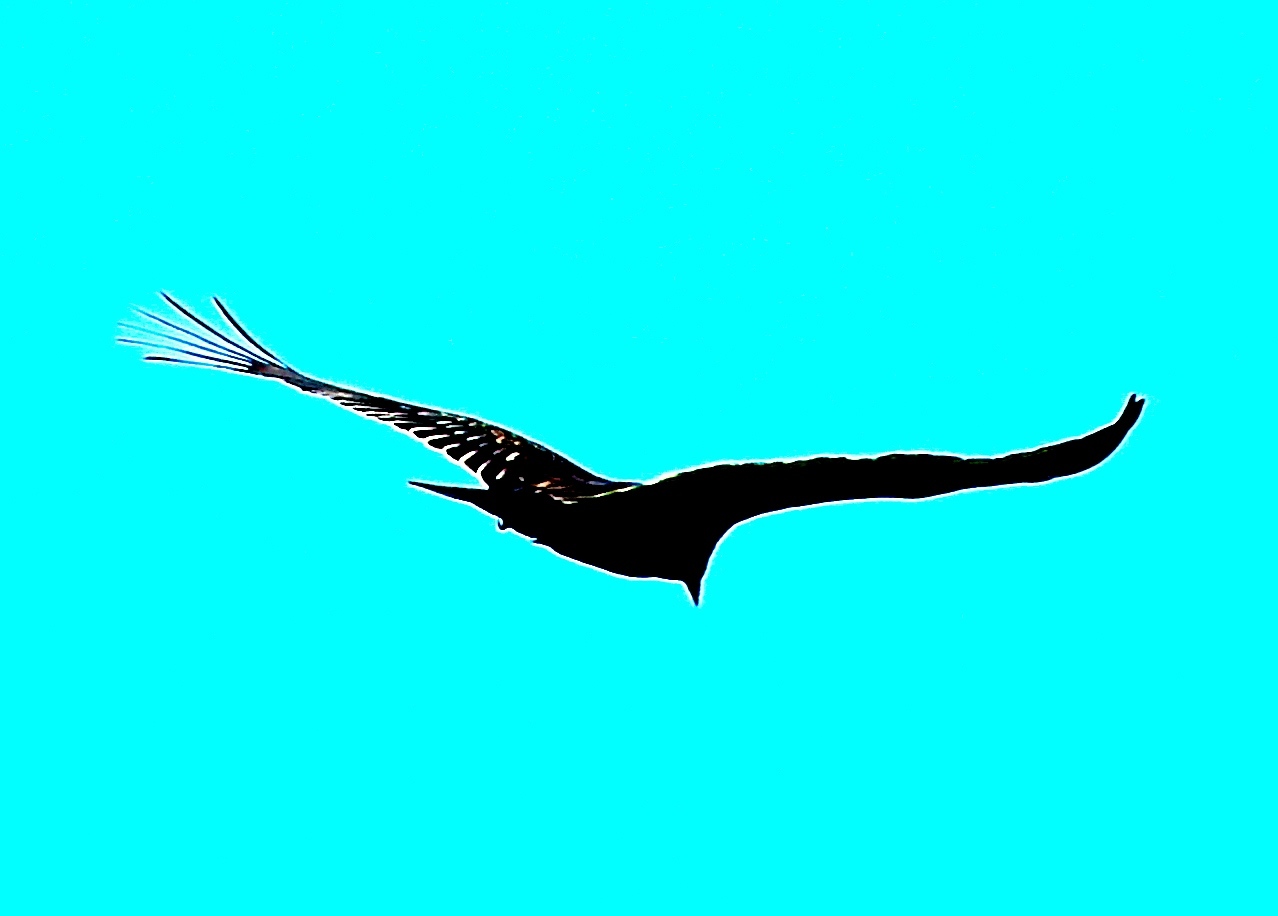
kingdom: Animalia
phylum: Chordata
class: Aves
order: Accipitriformes
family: Cathartidae
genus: Cathartes
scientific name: Cathartes aura
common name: Turkey vulture
